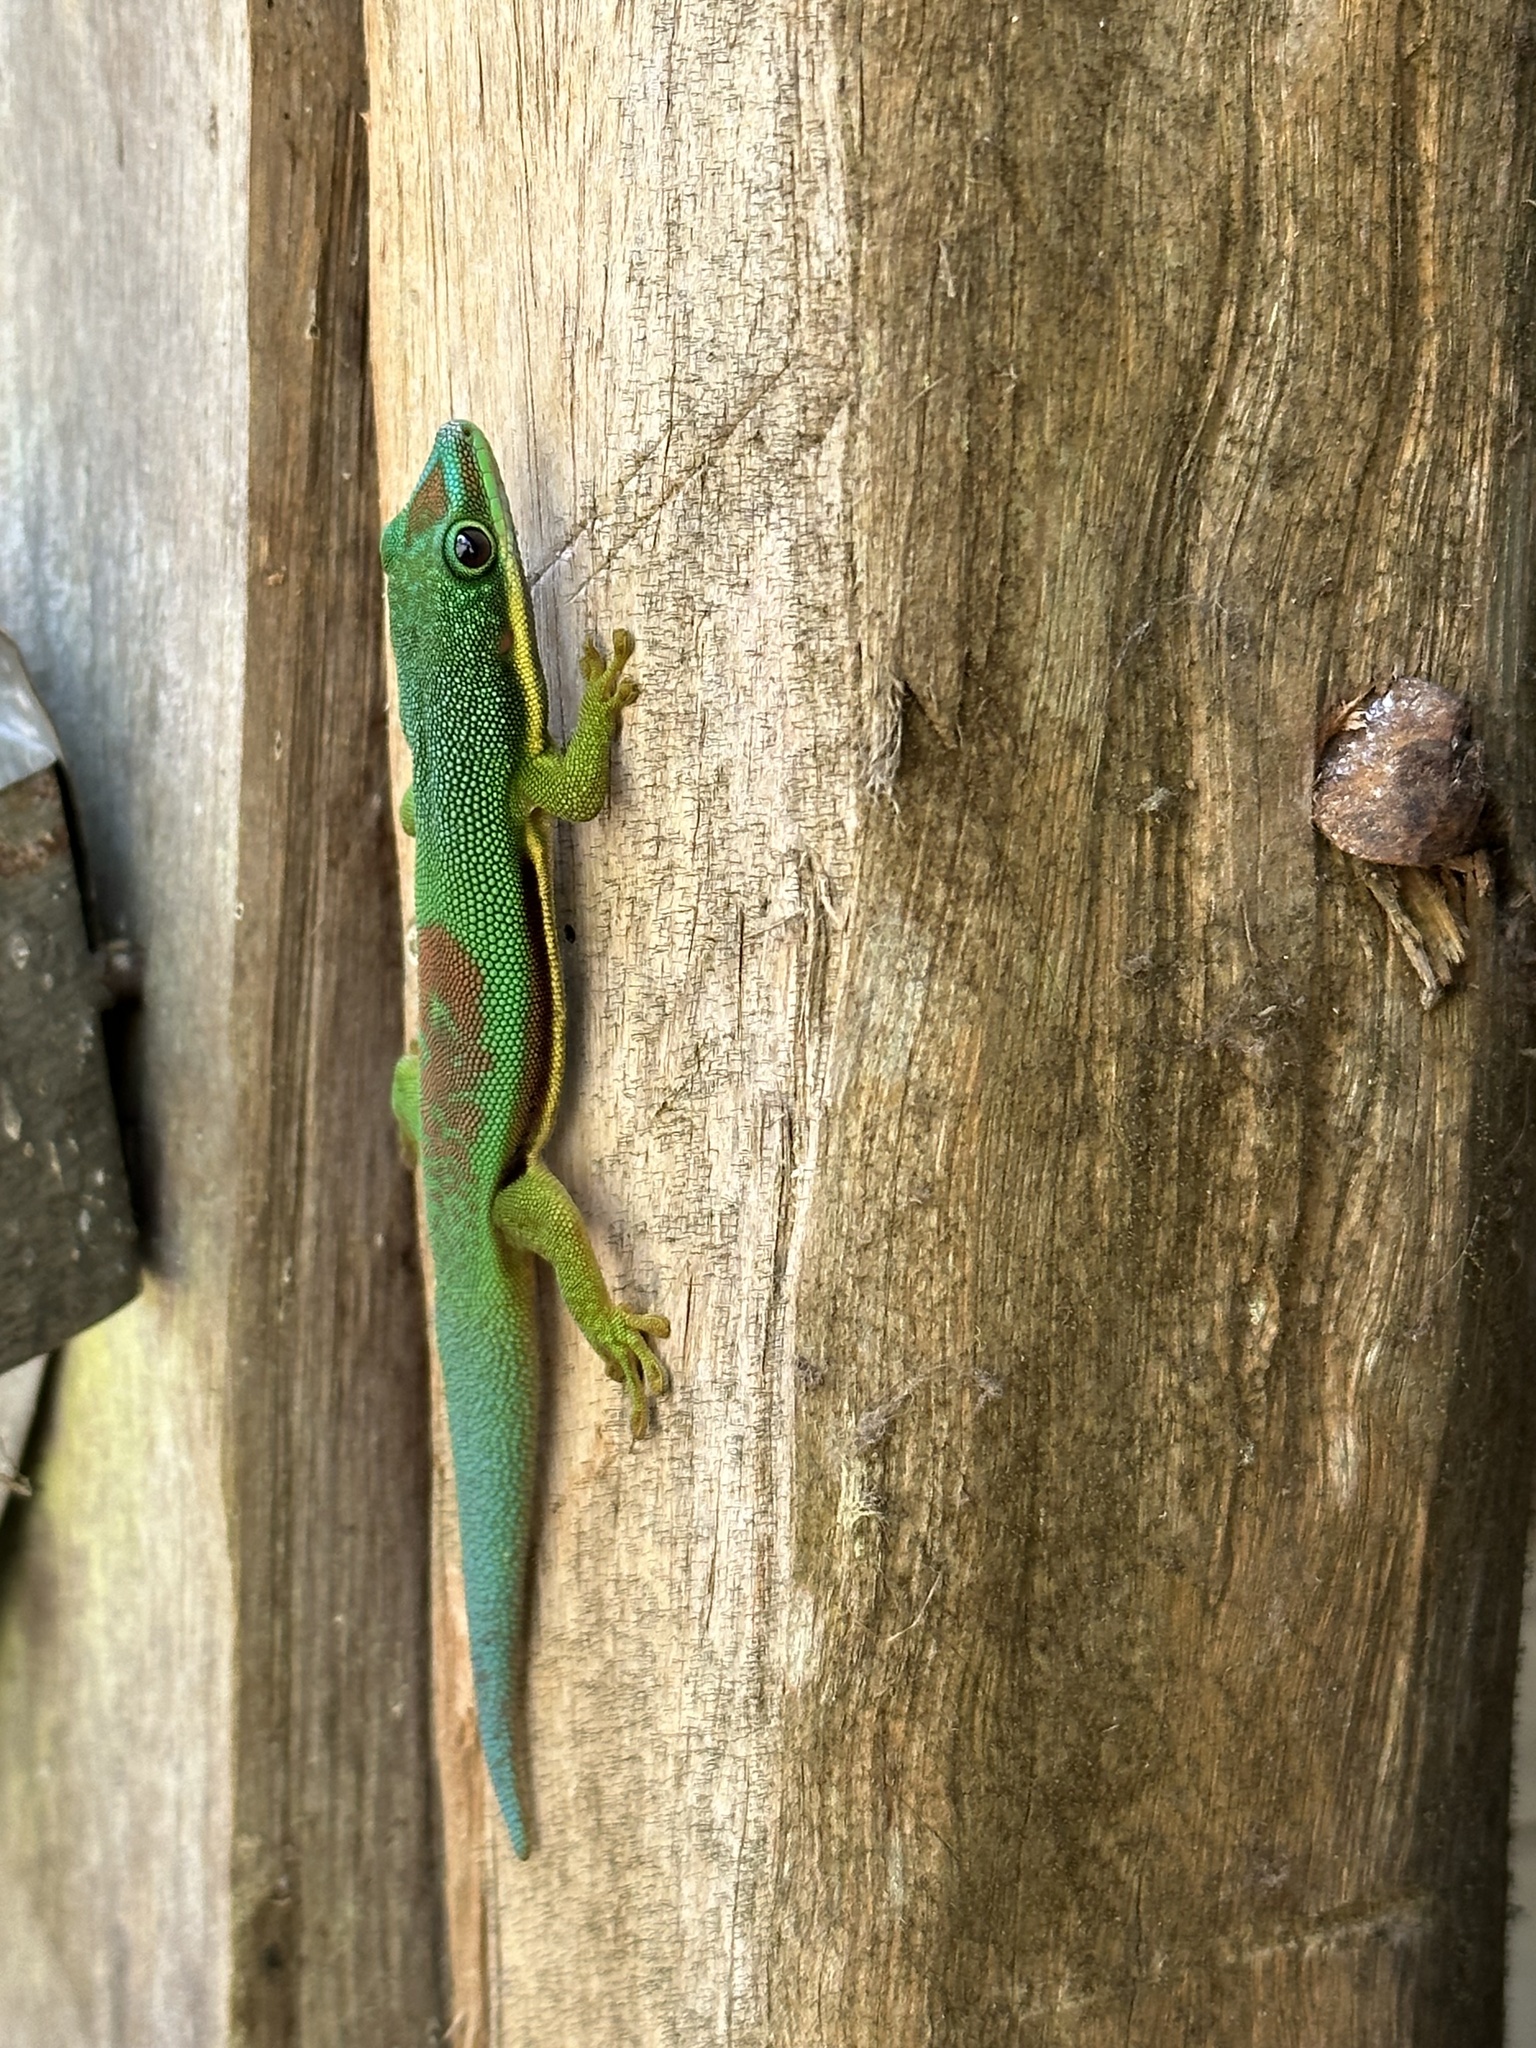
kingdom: Animalia
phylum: Chordata
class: Squamata
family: Gekkonidae
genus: Phelsuma
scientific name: Phelsuma lineata
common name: Lined day gecko
